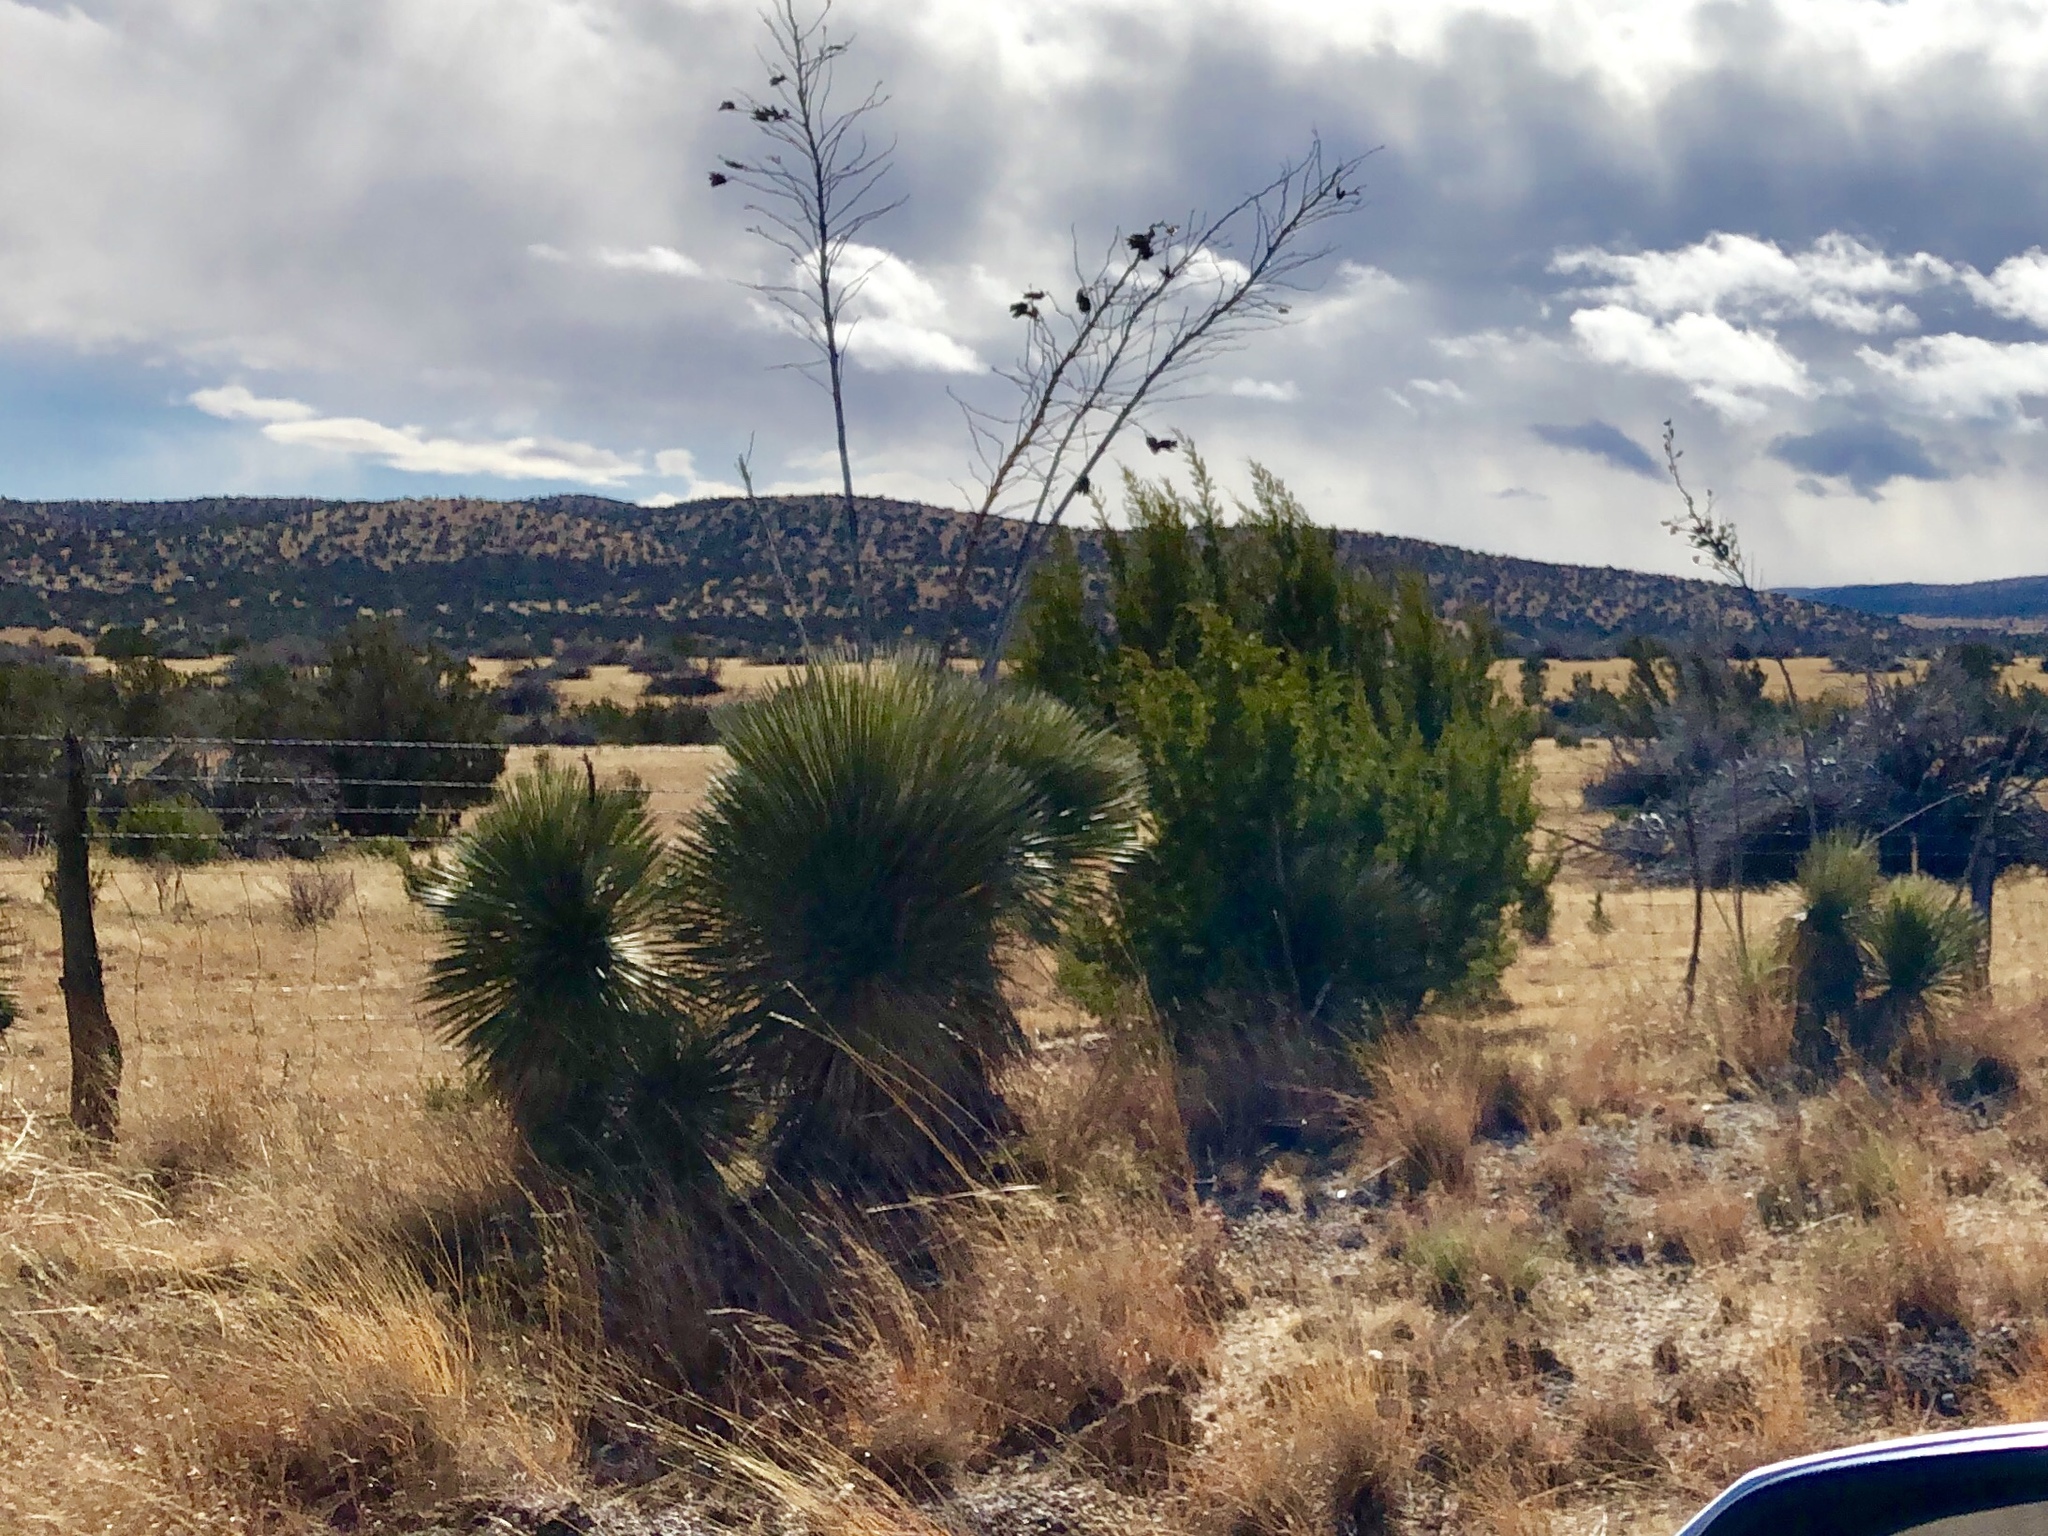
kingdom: Plantae
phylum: Tracheophyta
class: Liliopsida
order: Asparagales
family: Asparagaceae
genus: Yucca
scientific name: Yucca elata
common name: Palmella
